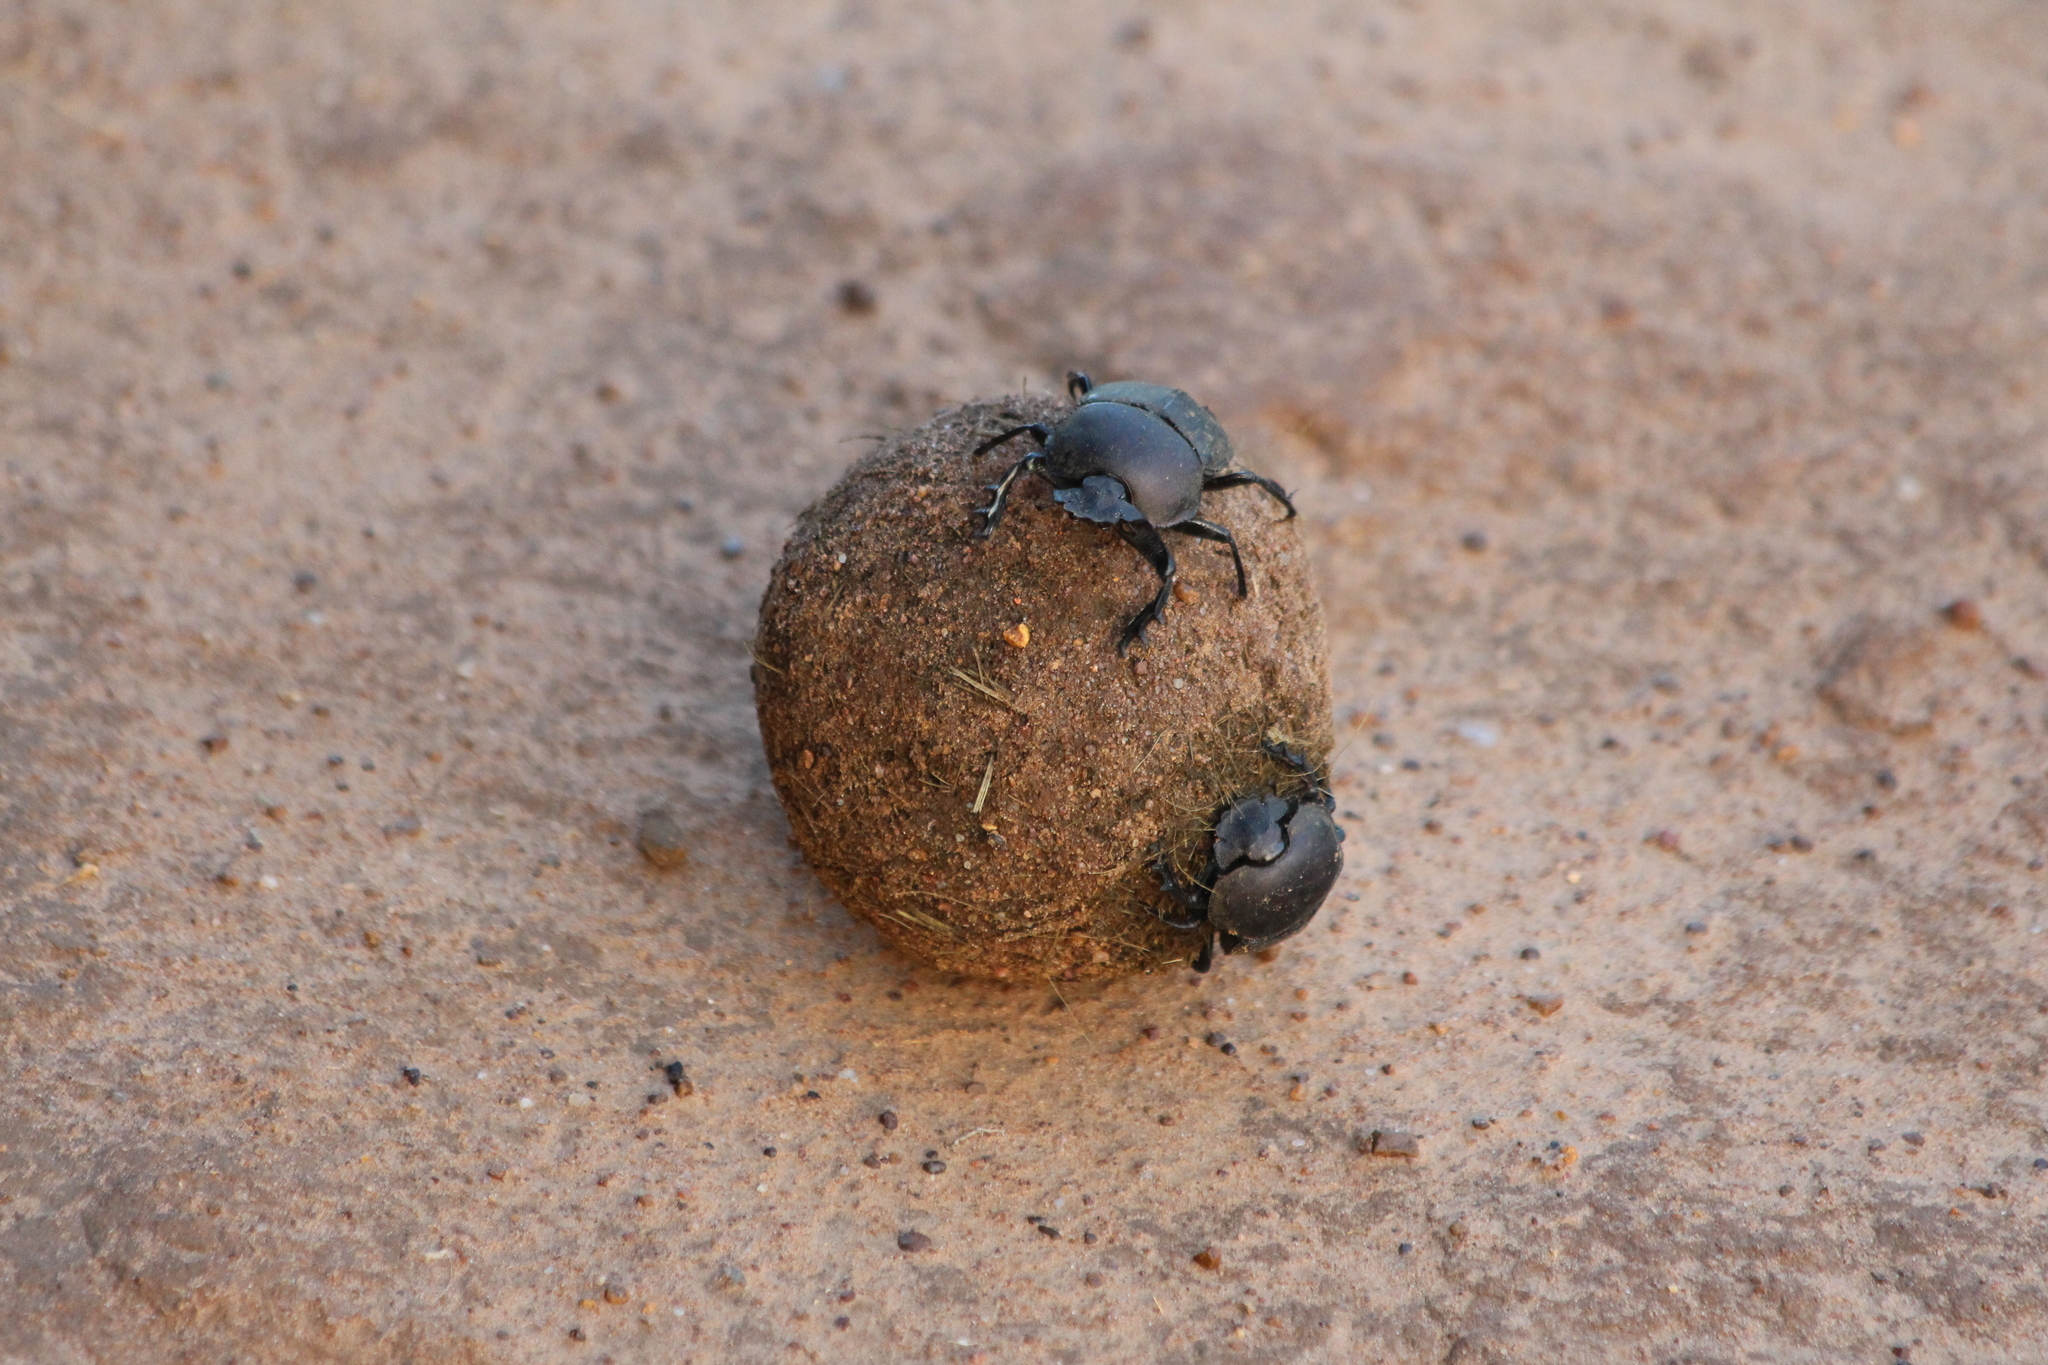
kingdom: Animalia
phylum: Arthropoda
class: Insecta
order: Coleoptera
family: Scarabaeidae
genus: Kheper
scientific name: Kheper
